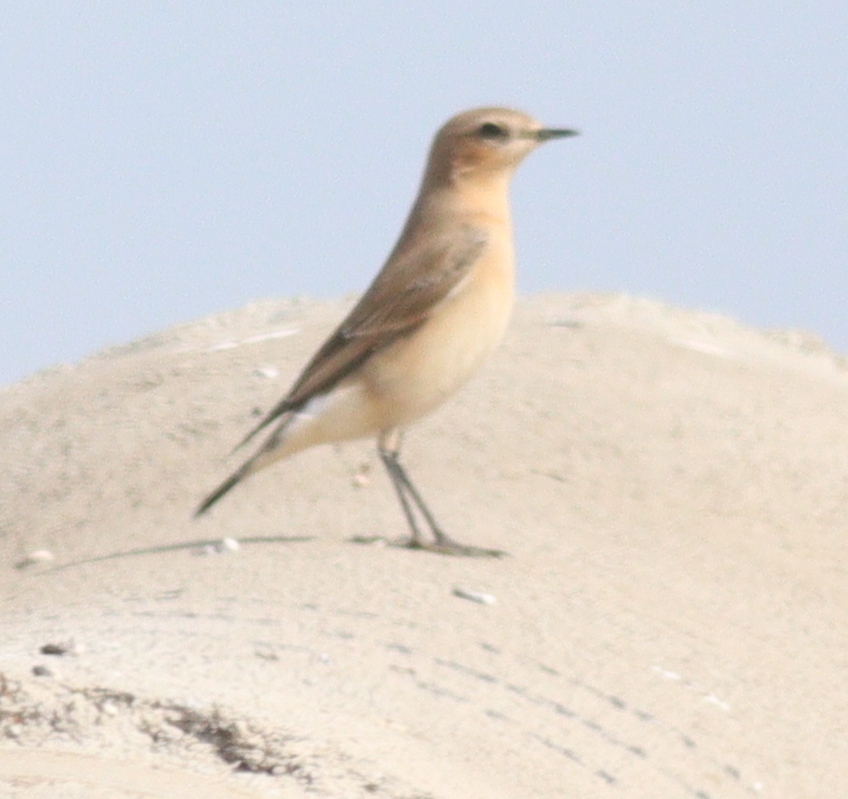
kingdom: Animalia
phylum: Chordata
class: Aves
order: Passeriformes
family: Muscicapidae
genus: Oenanthe
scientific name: Oenanthe oenanthe
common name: Northern wheatear
